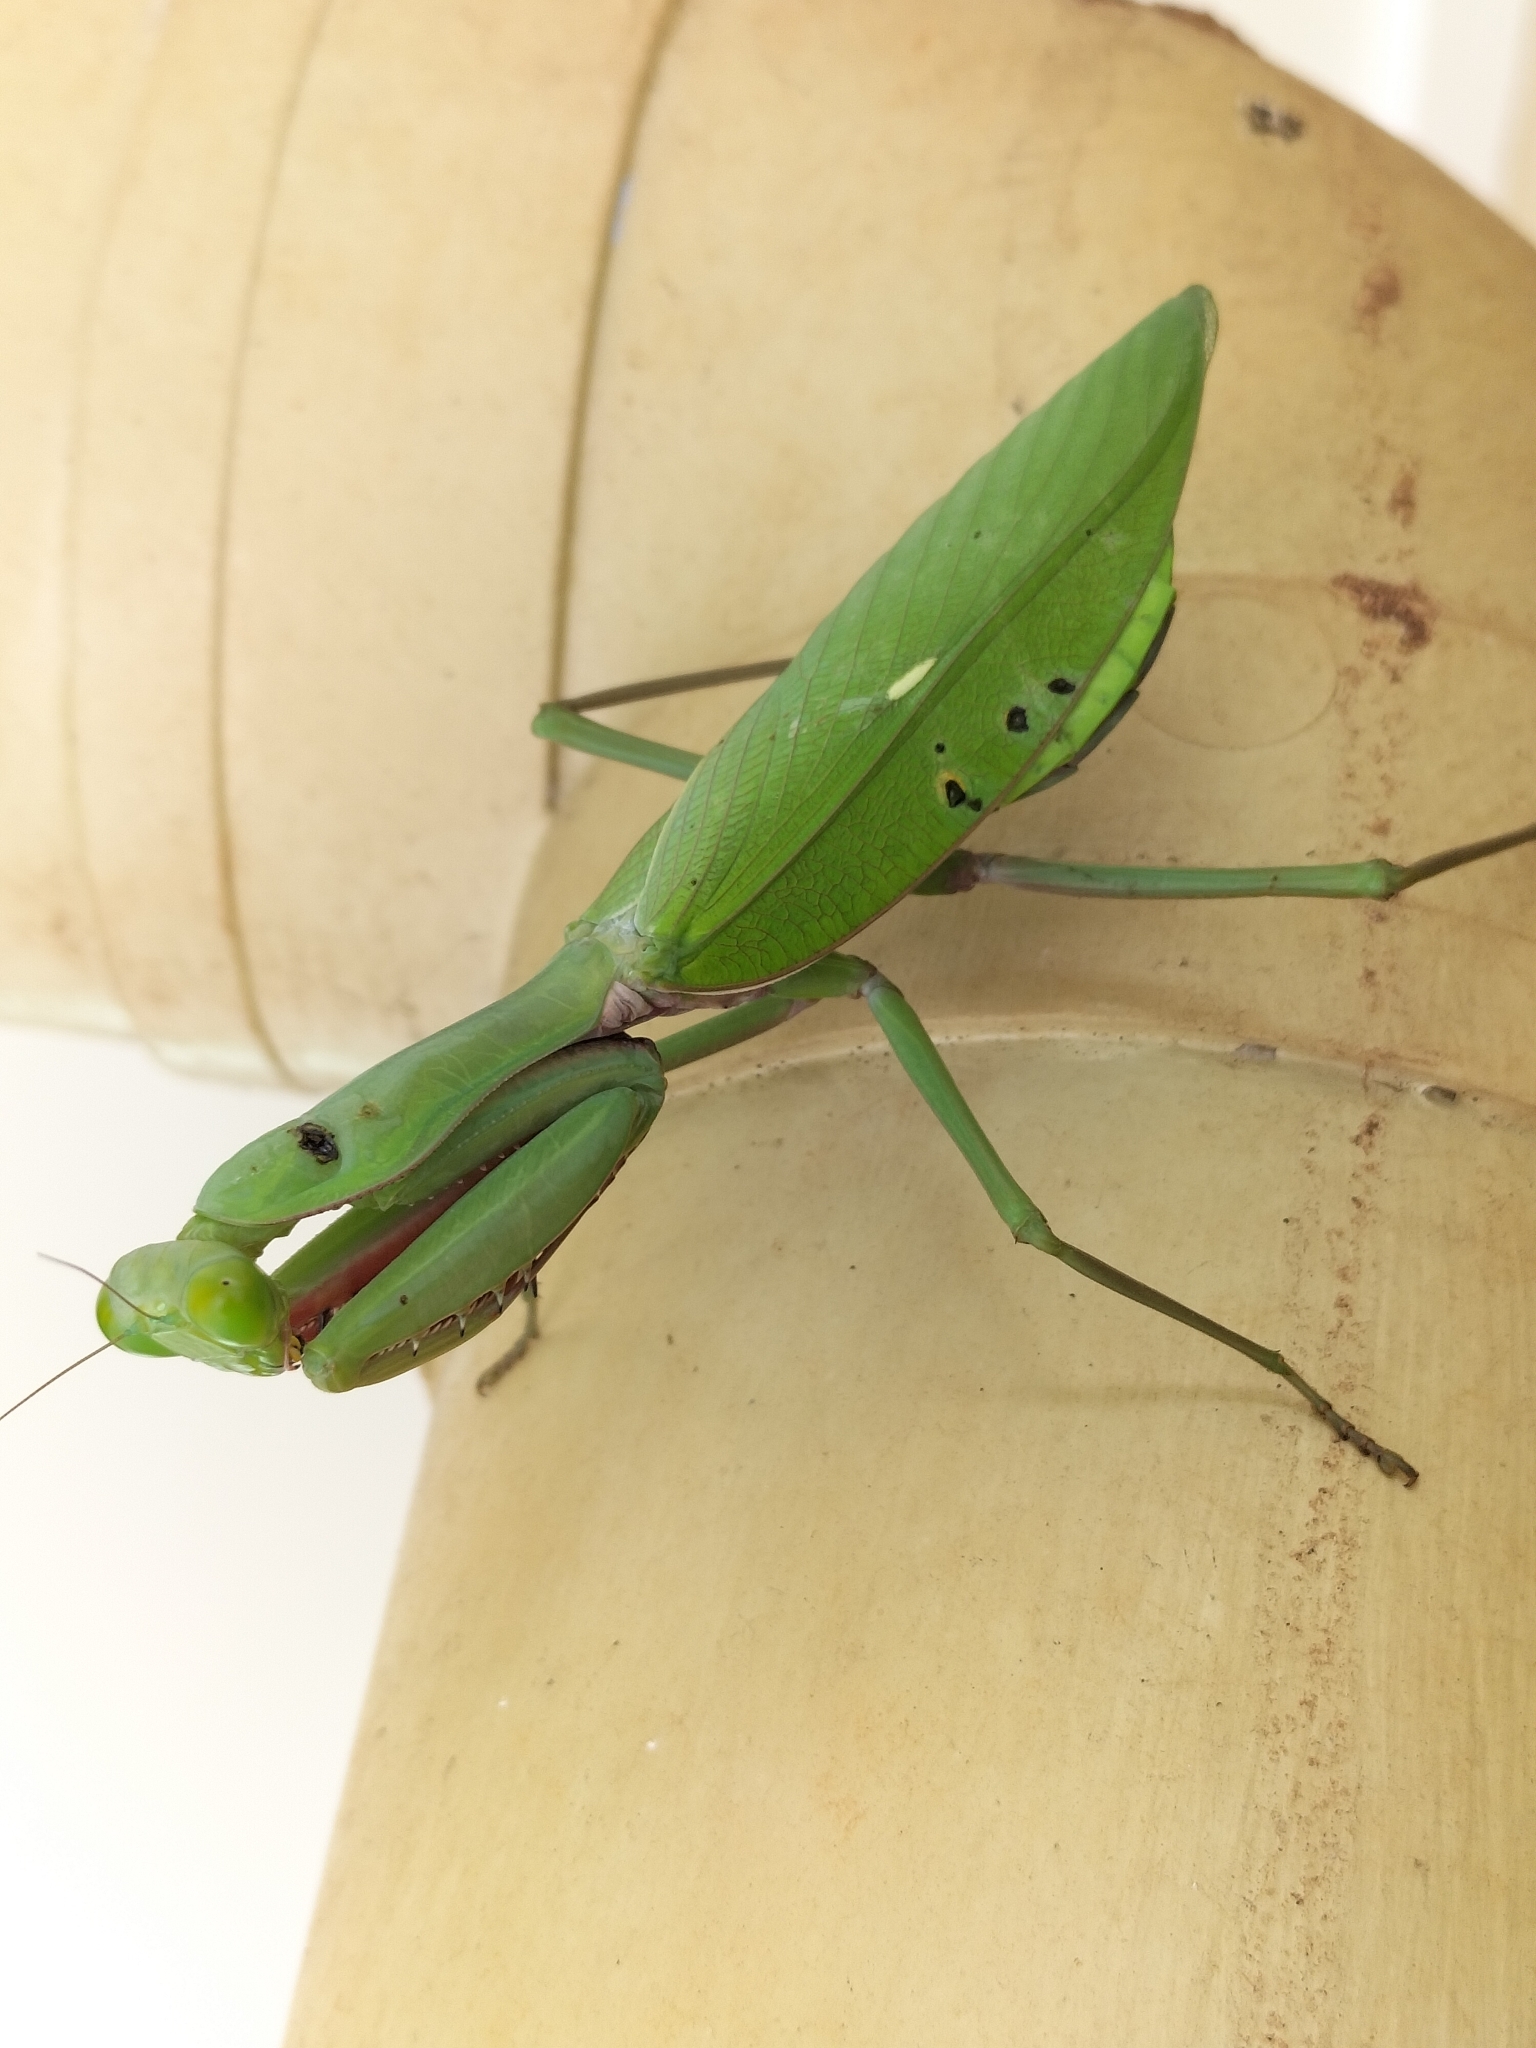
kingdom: Animalia
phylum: Arthropoda
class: Insecta
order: Mantodea
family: Mantidae
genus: Hierodula
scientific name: Hierodula majuscula
